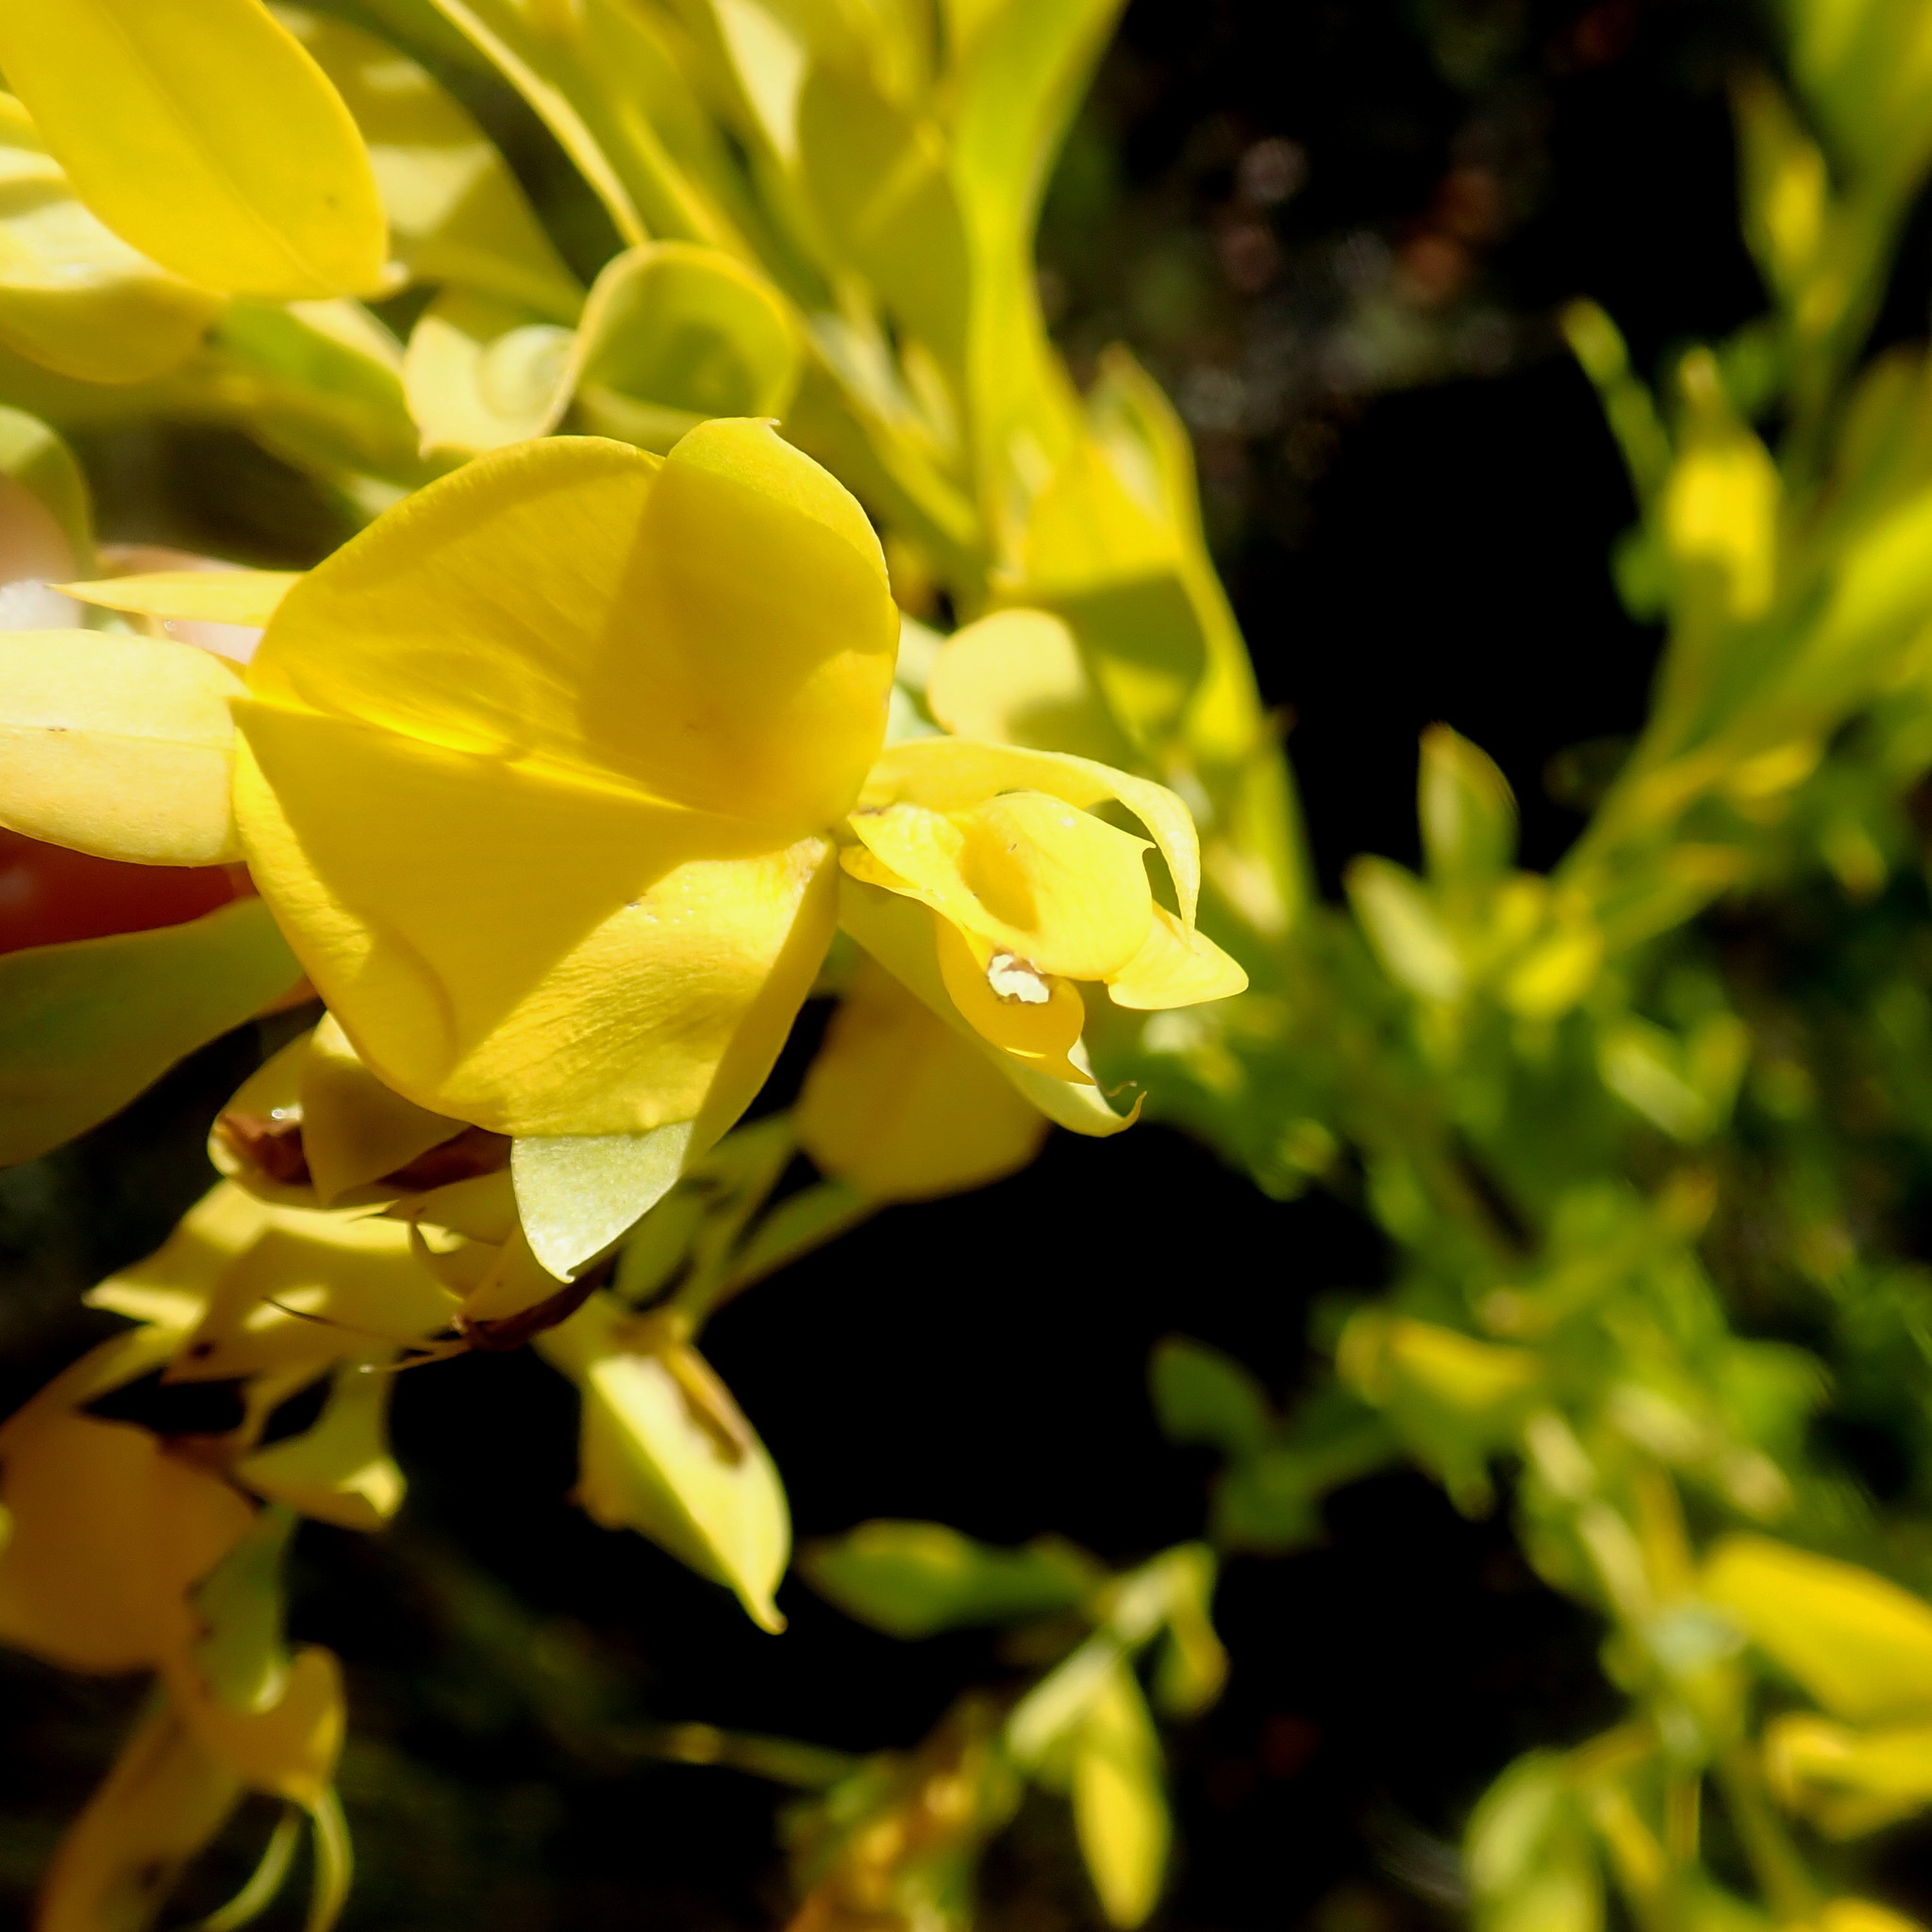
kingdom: Plantae
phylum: Tracheophyta
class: Magnoliopsida
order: Fabales
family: Fabaceae
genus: Rafnia
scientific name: Rafnia vlokii
